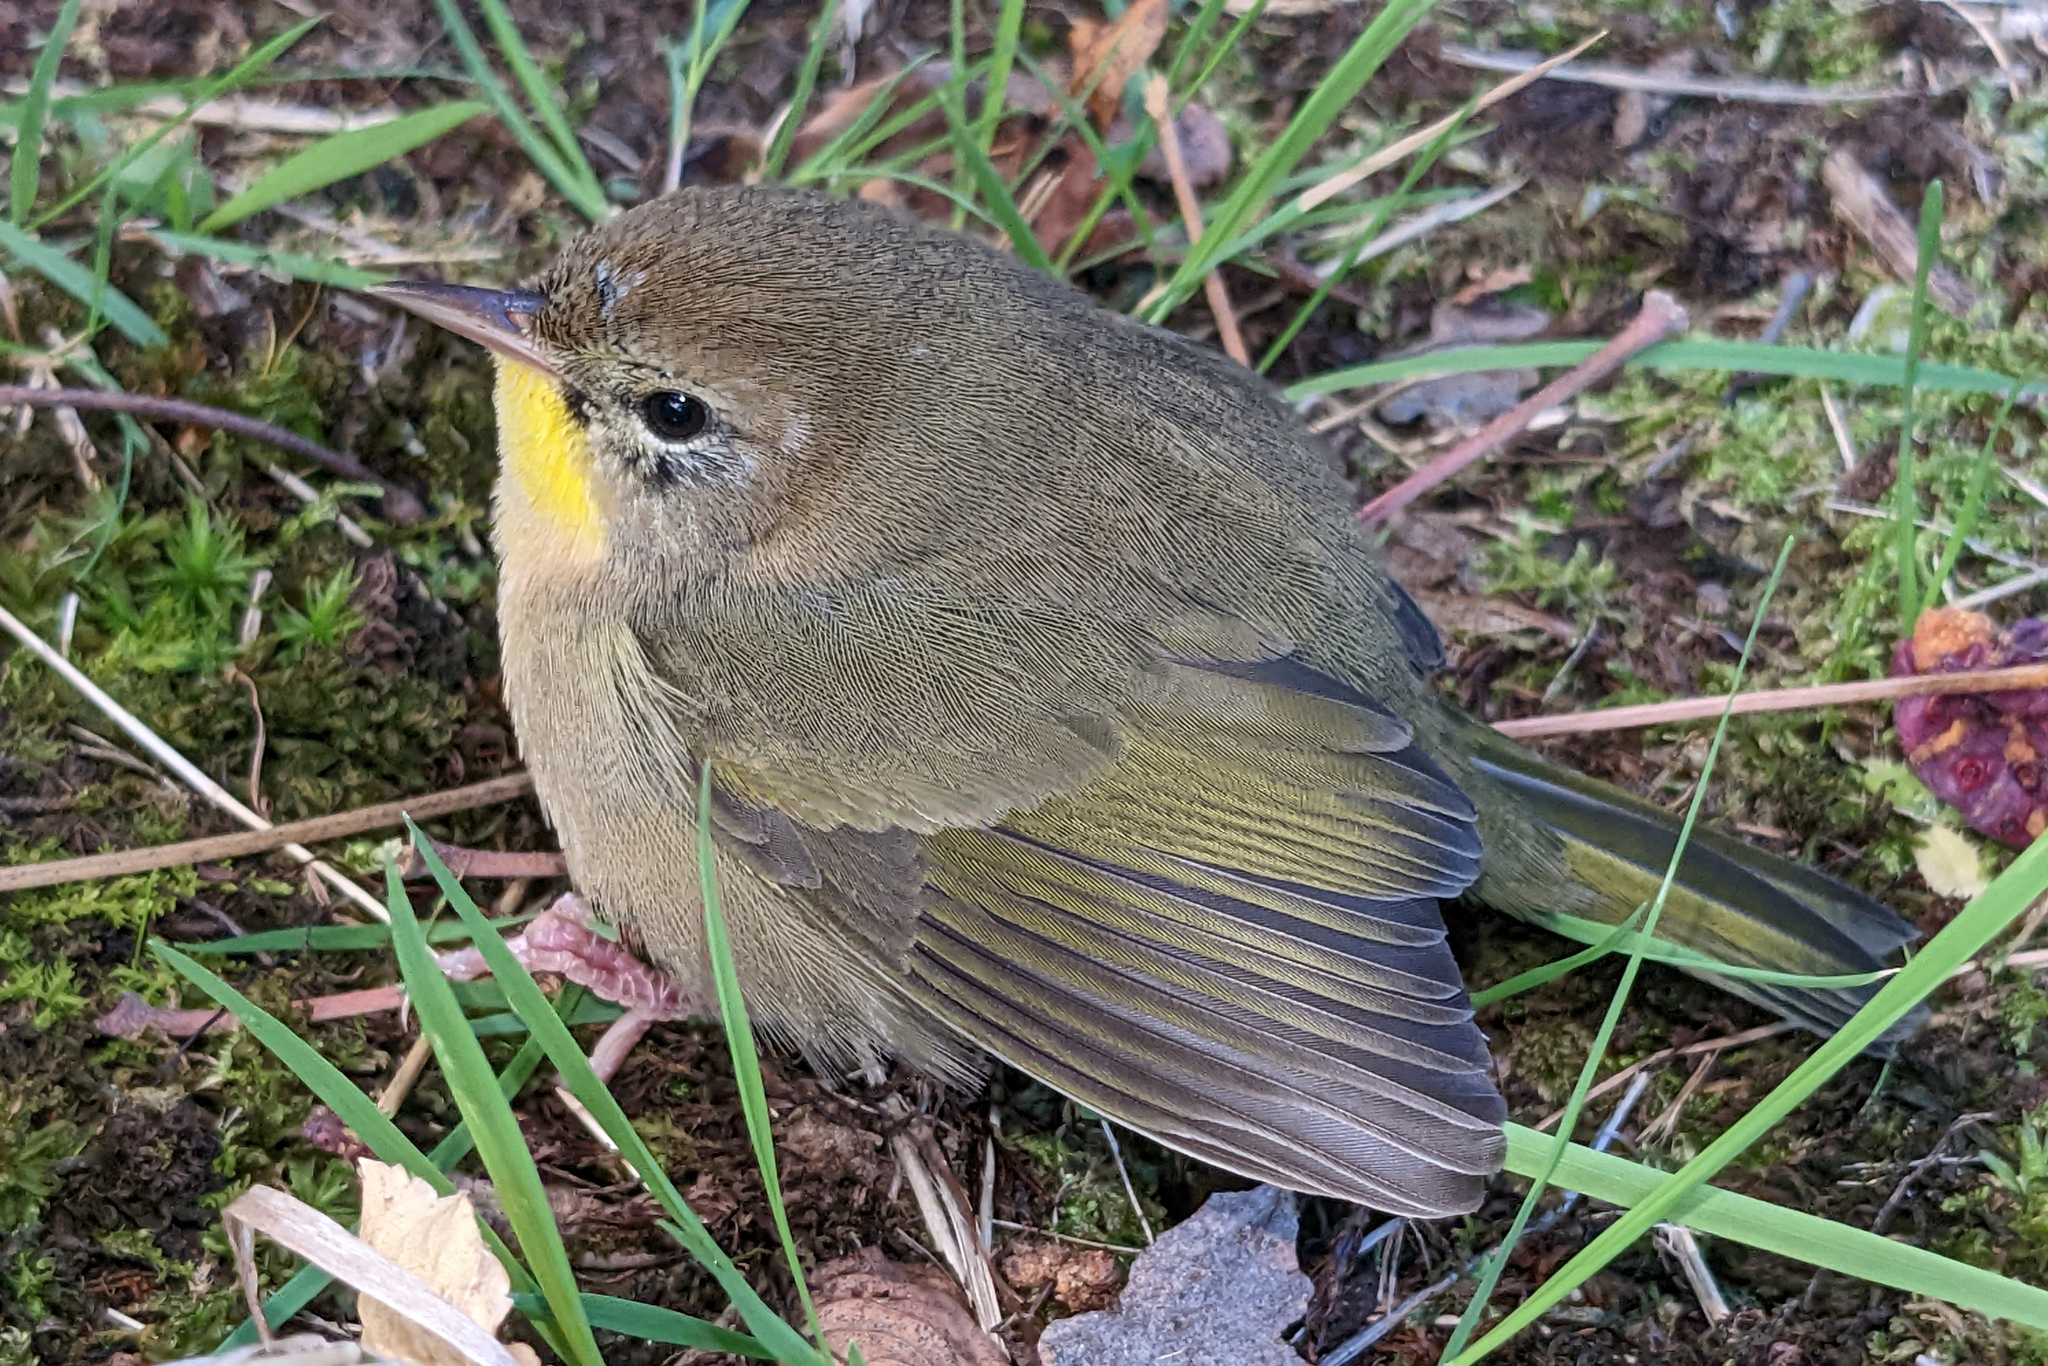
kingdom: Animalia
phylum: Chordata
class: Aves
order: Passeriformes
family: Parulidae
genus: Geothlypis
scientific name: Geothlypis trichas
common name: Common yellowthroat
